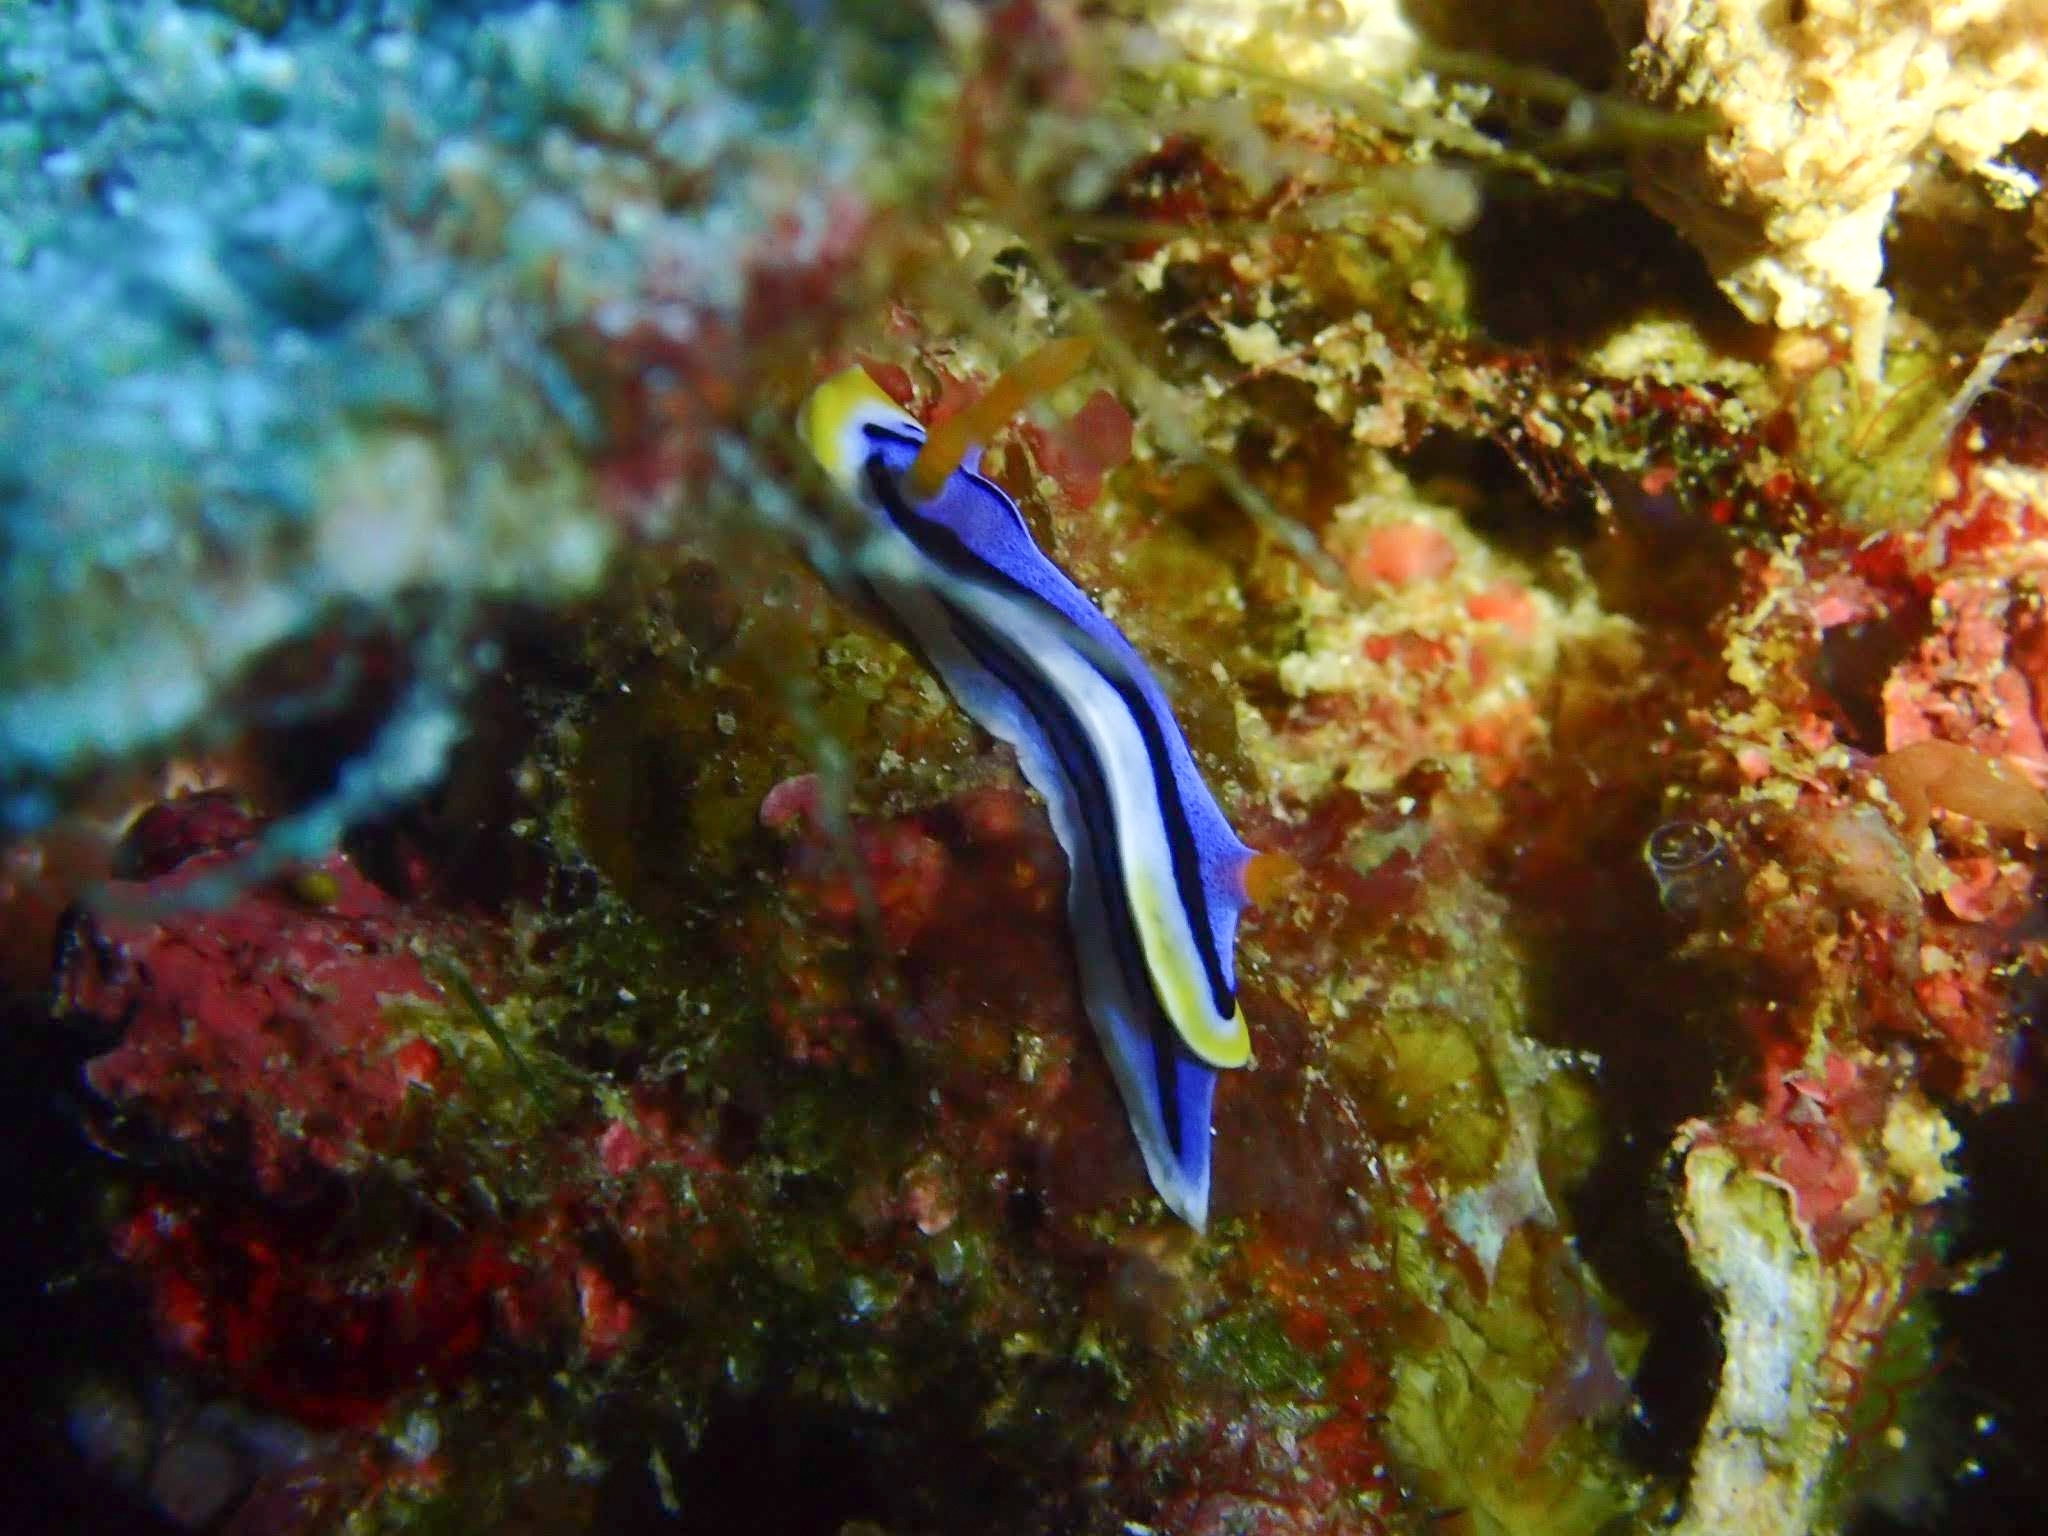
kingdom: Animalia
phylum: Mollusca
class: Gastropoda
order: Nudibranchia
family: Chromodorididae
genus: Chromodoris
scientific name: Chromodoris annae
